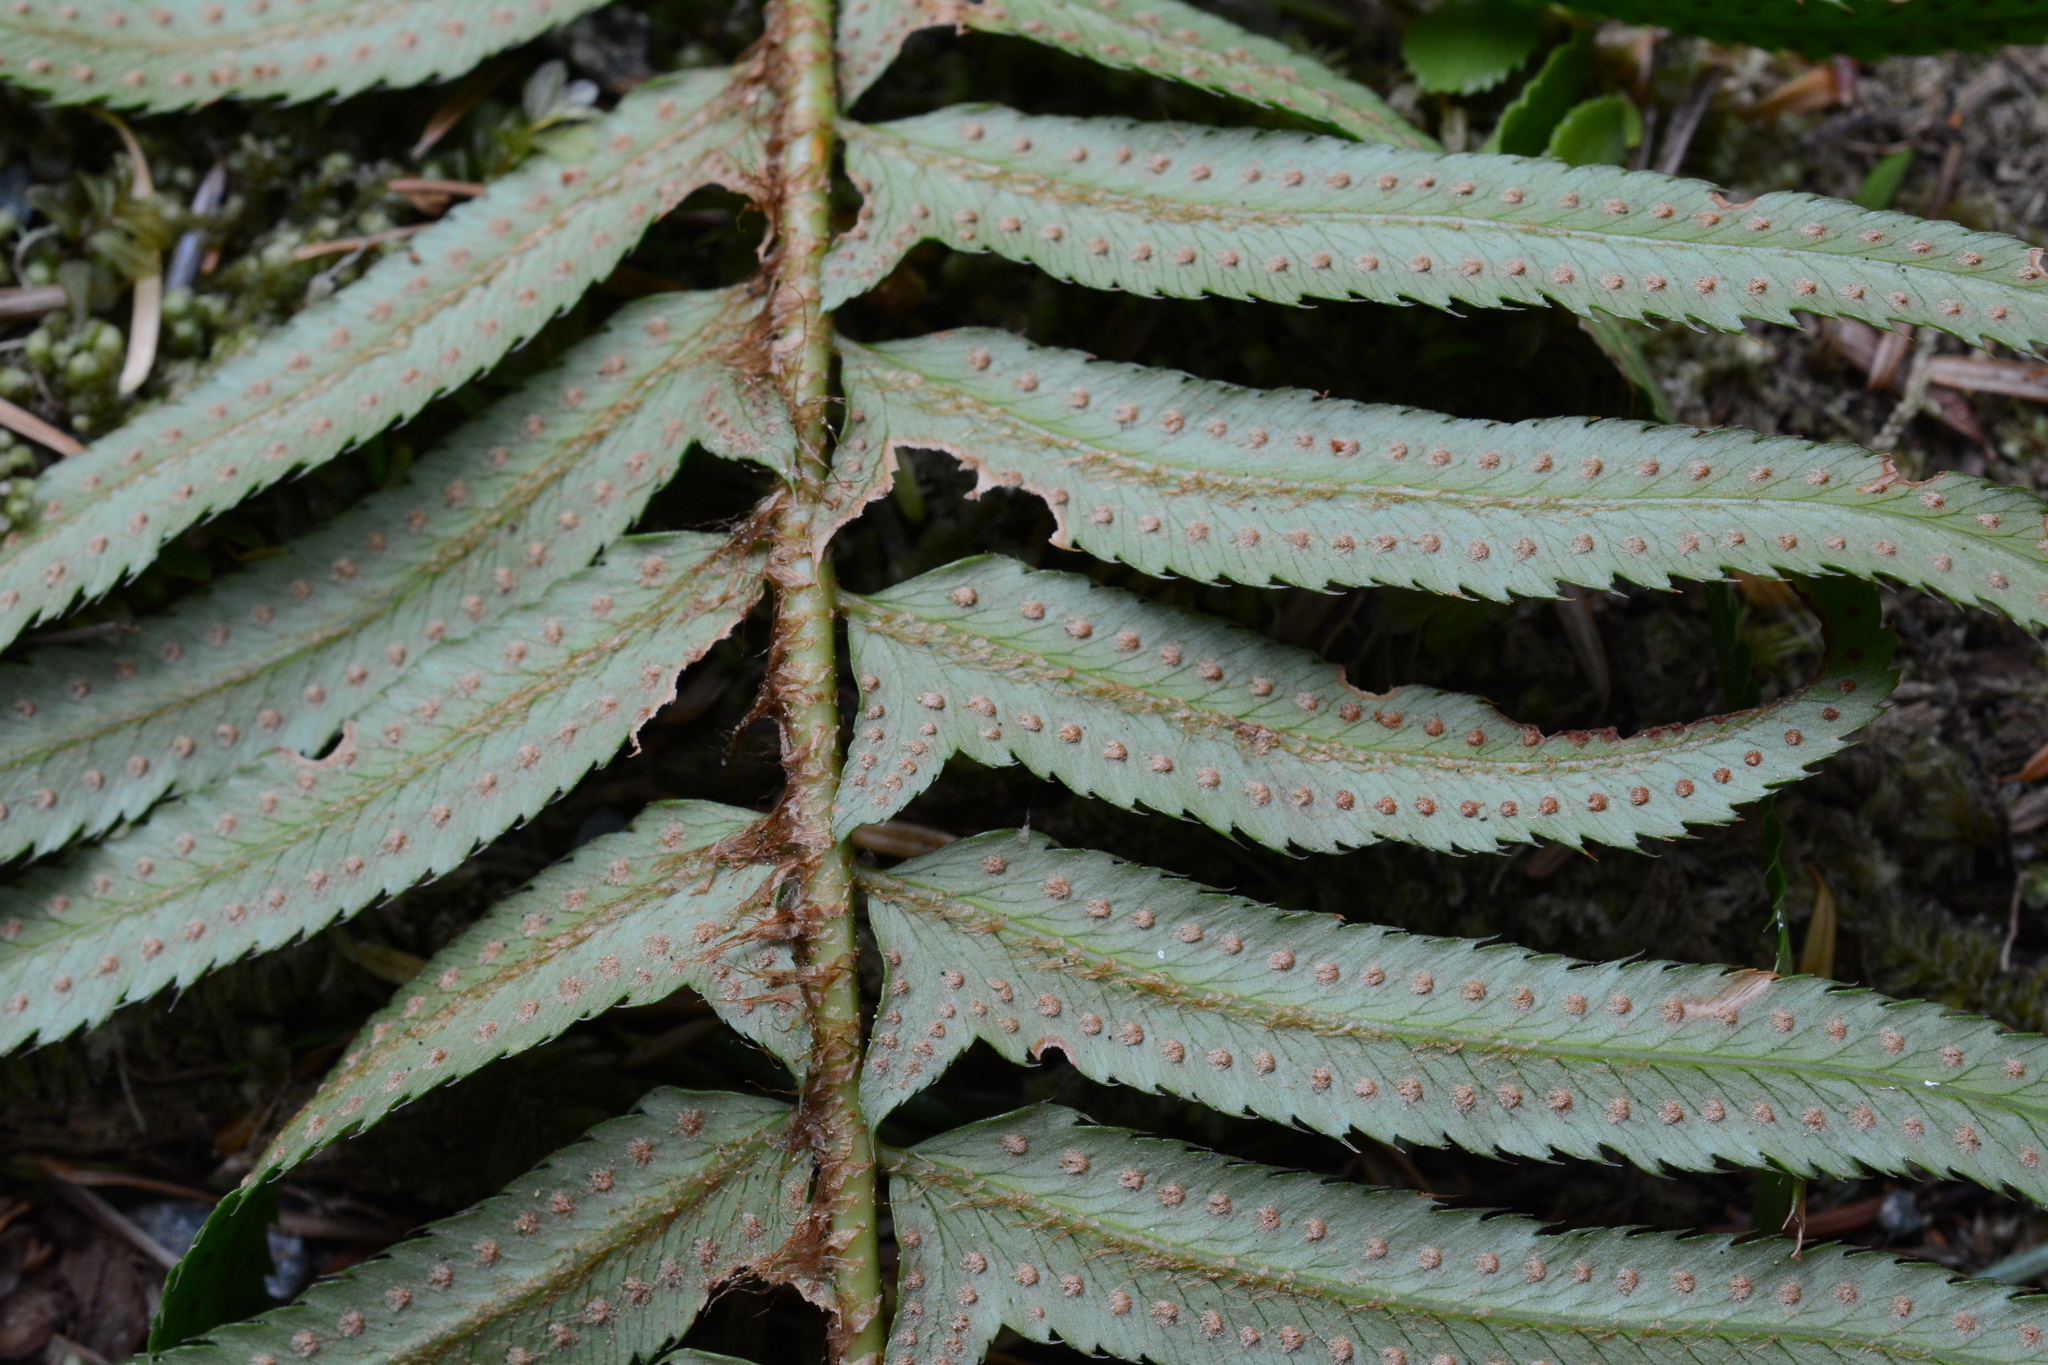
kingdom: Plantae
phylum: Tracheophyta
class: Polypodiopsida
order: Polypodiales
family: Dryopteridaceae
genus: Polystichum
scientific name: Polystichum munitum
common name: Western sword-fern
